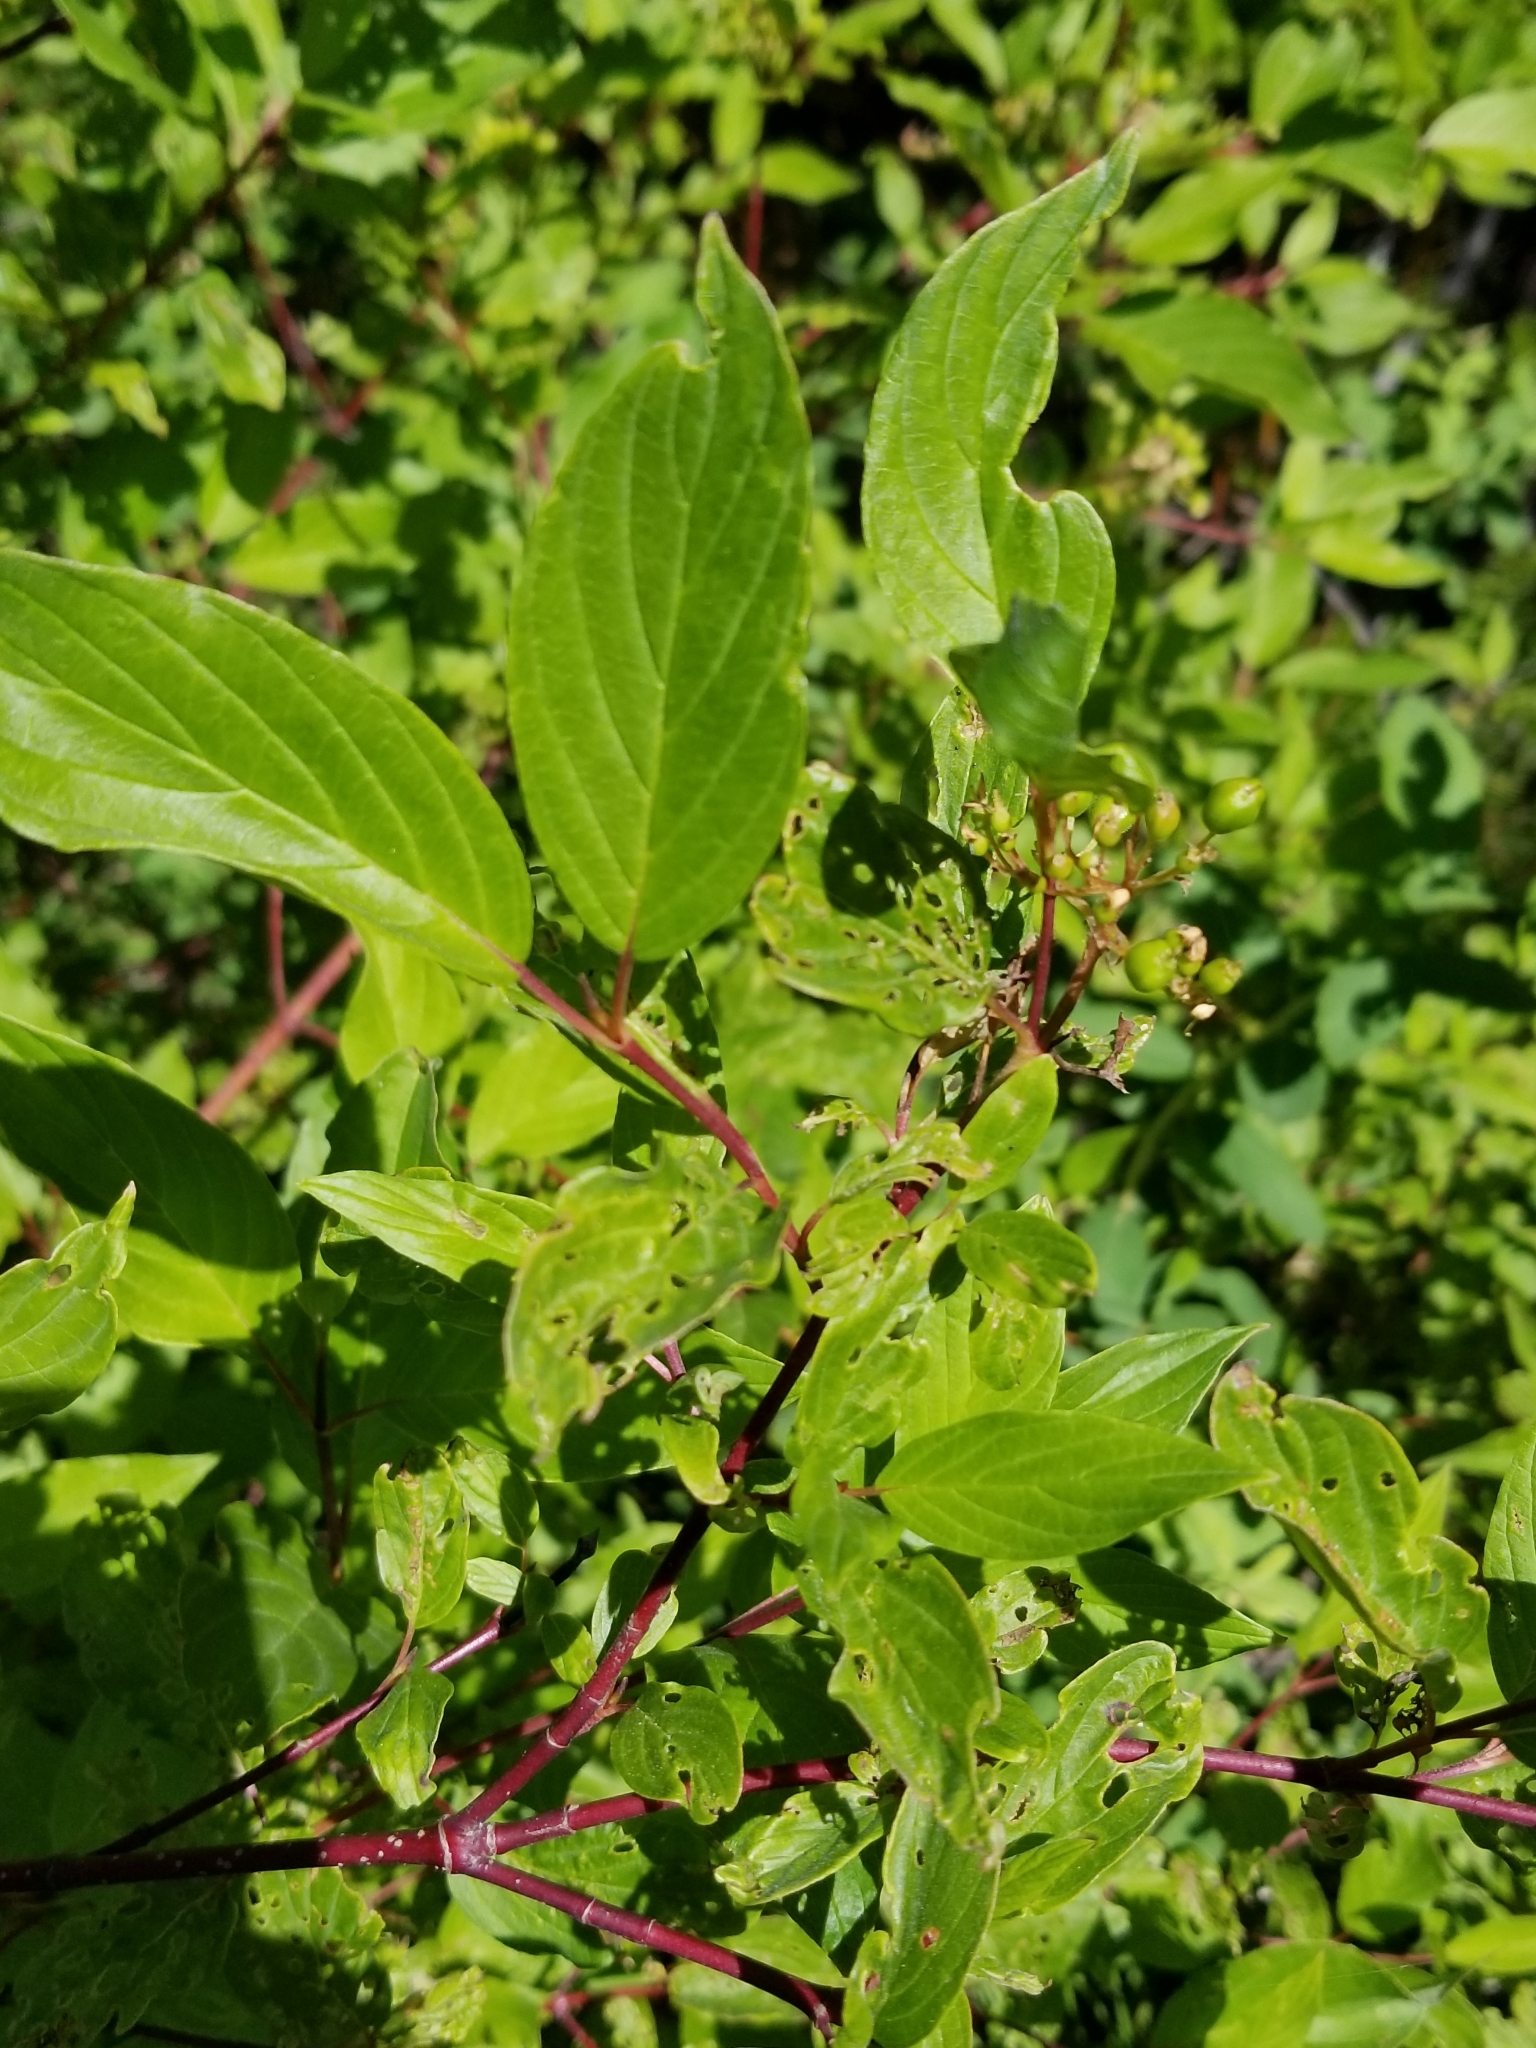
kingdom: Plantae
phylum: Tracheophyta
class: Magnoliopsida
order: Cornales
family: Cornaceae
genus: Cornus
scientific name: Cornus sericea
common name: Red-osier dogwood
